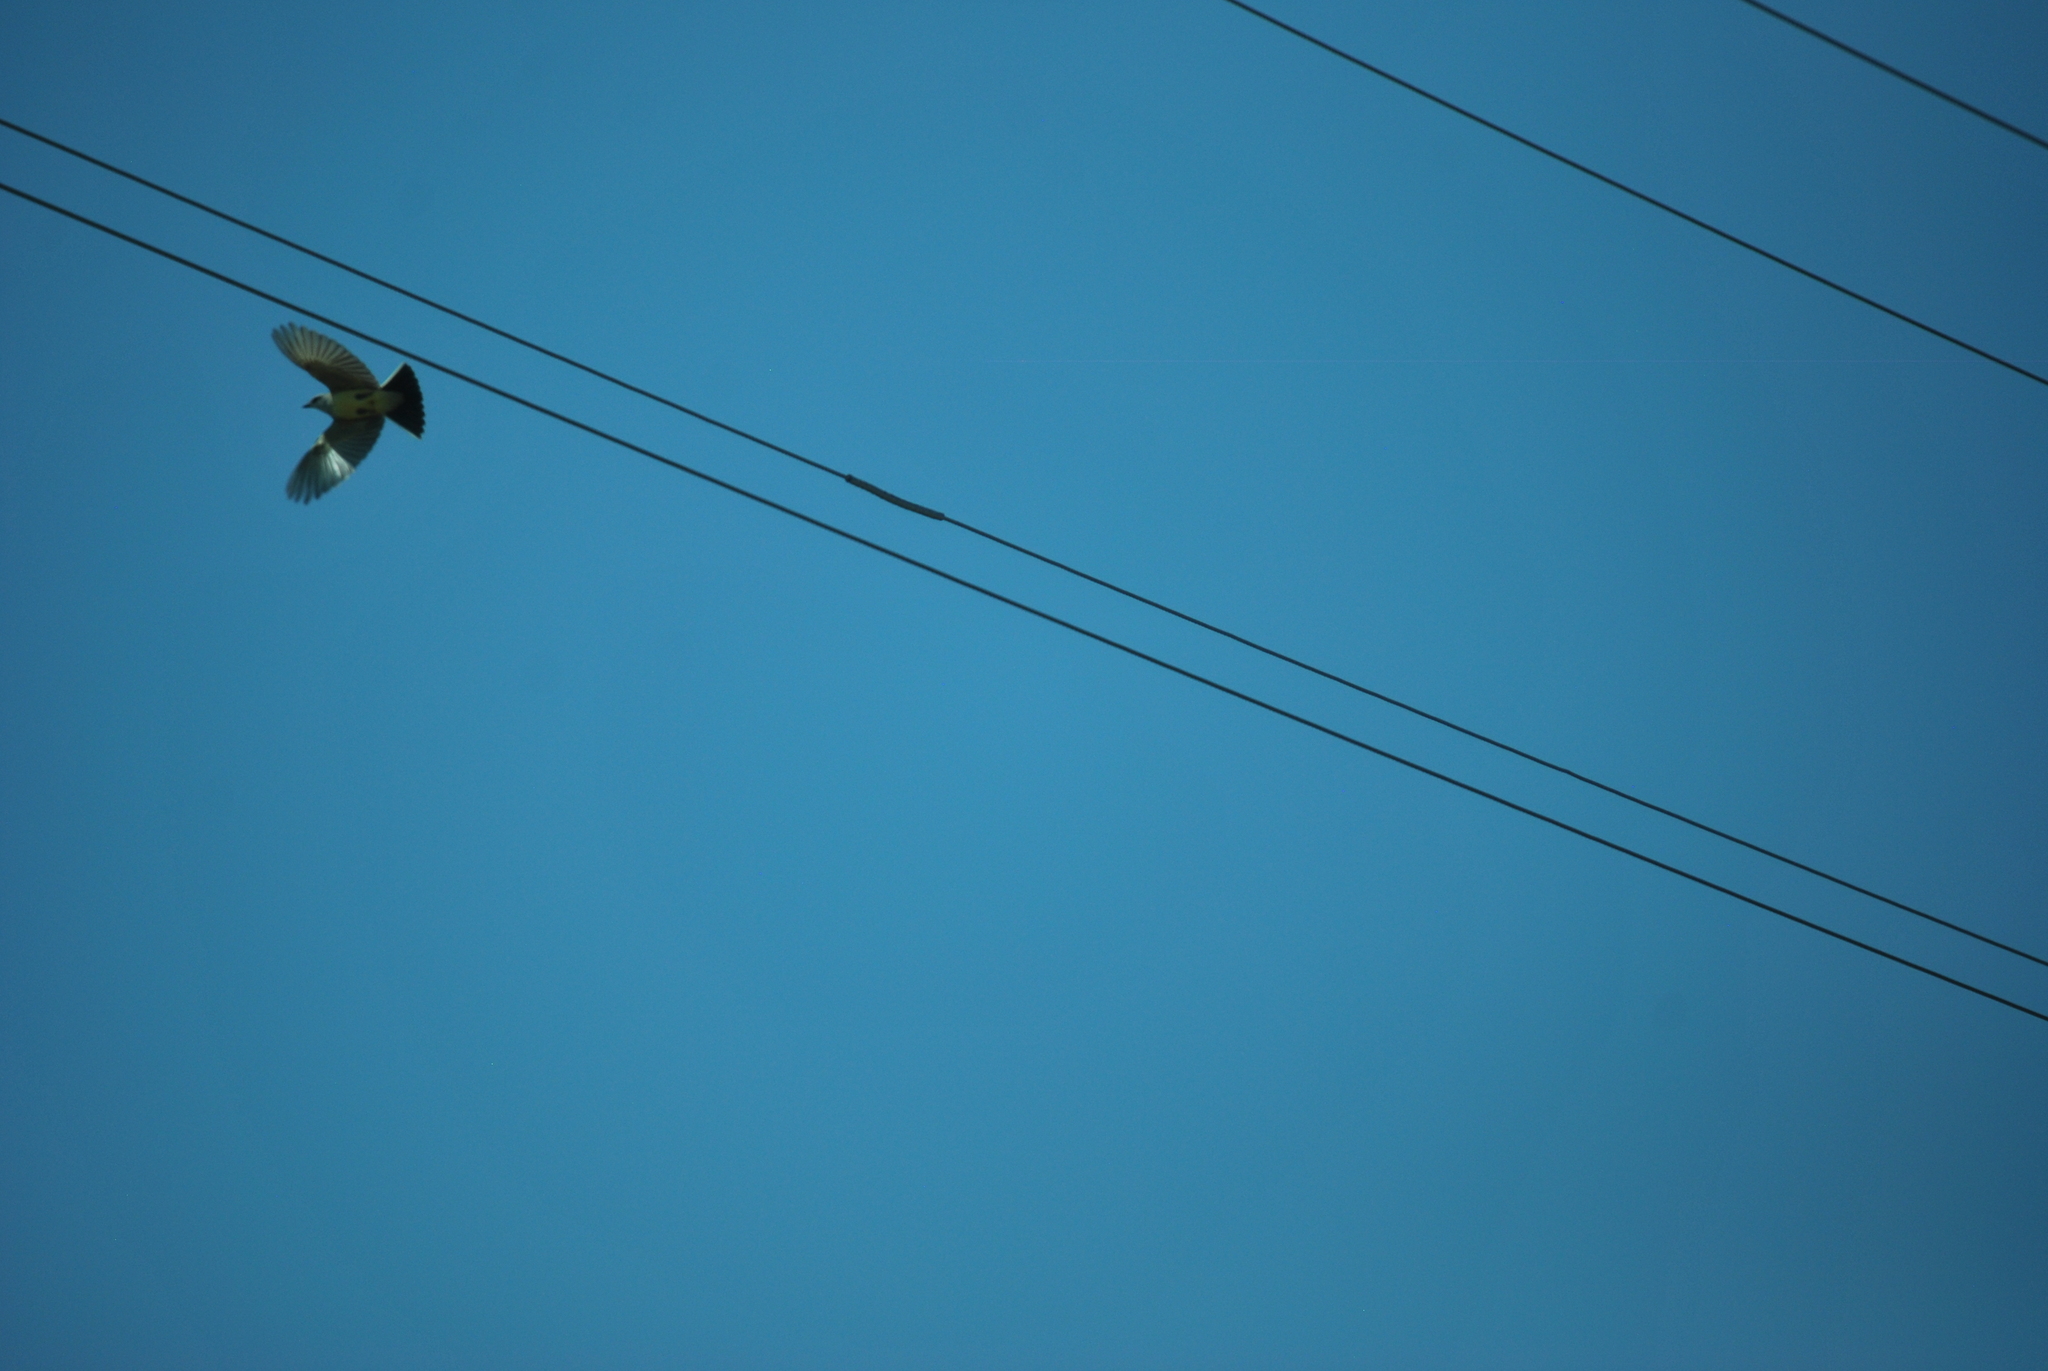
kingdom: Animalia
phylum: Chordata
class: Aves
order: Passeriformes
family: Tyrannidae
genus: Tyrannus
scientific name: Tyrannus verticalis
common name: Western kingbird
